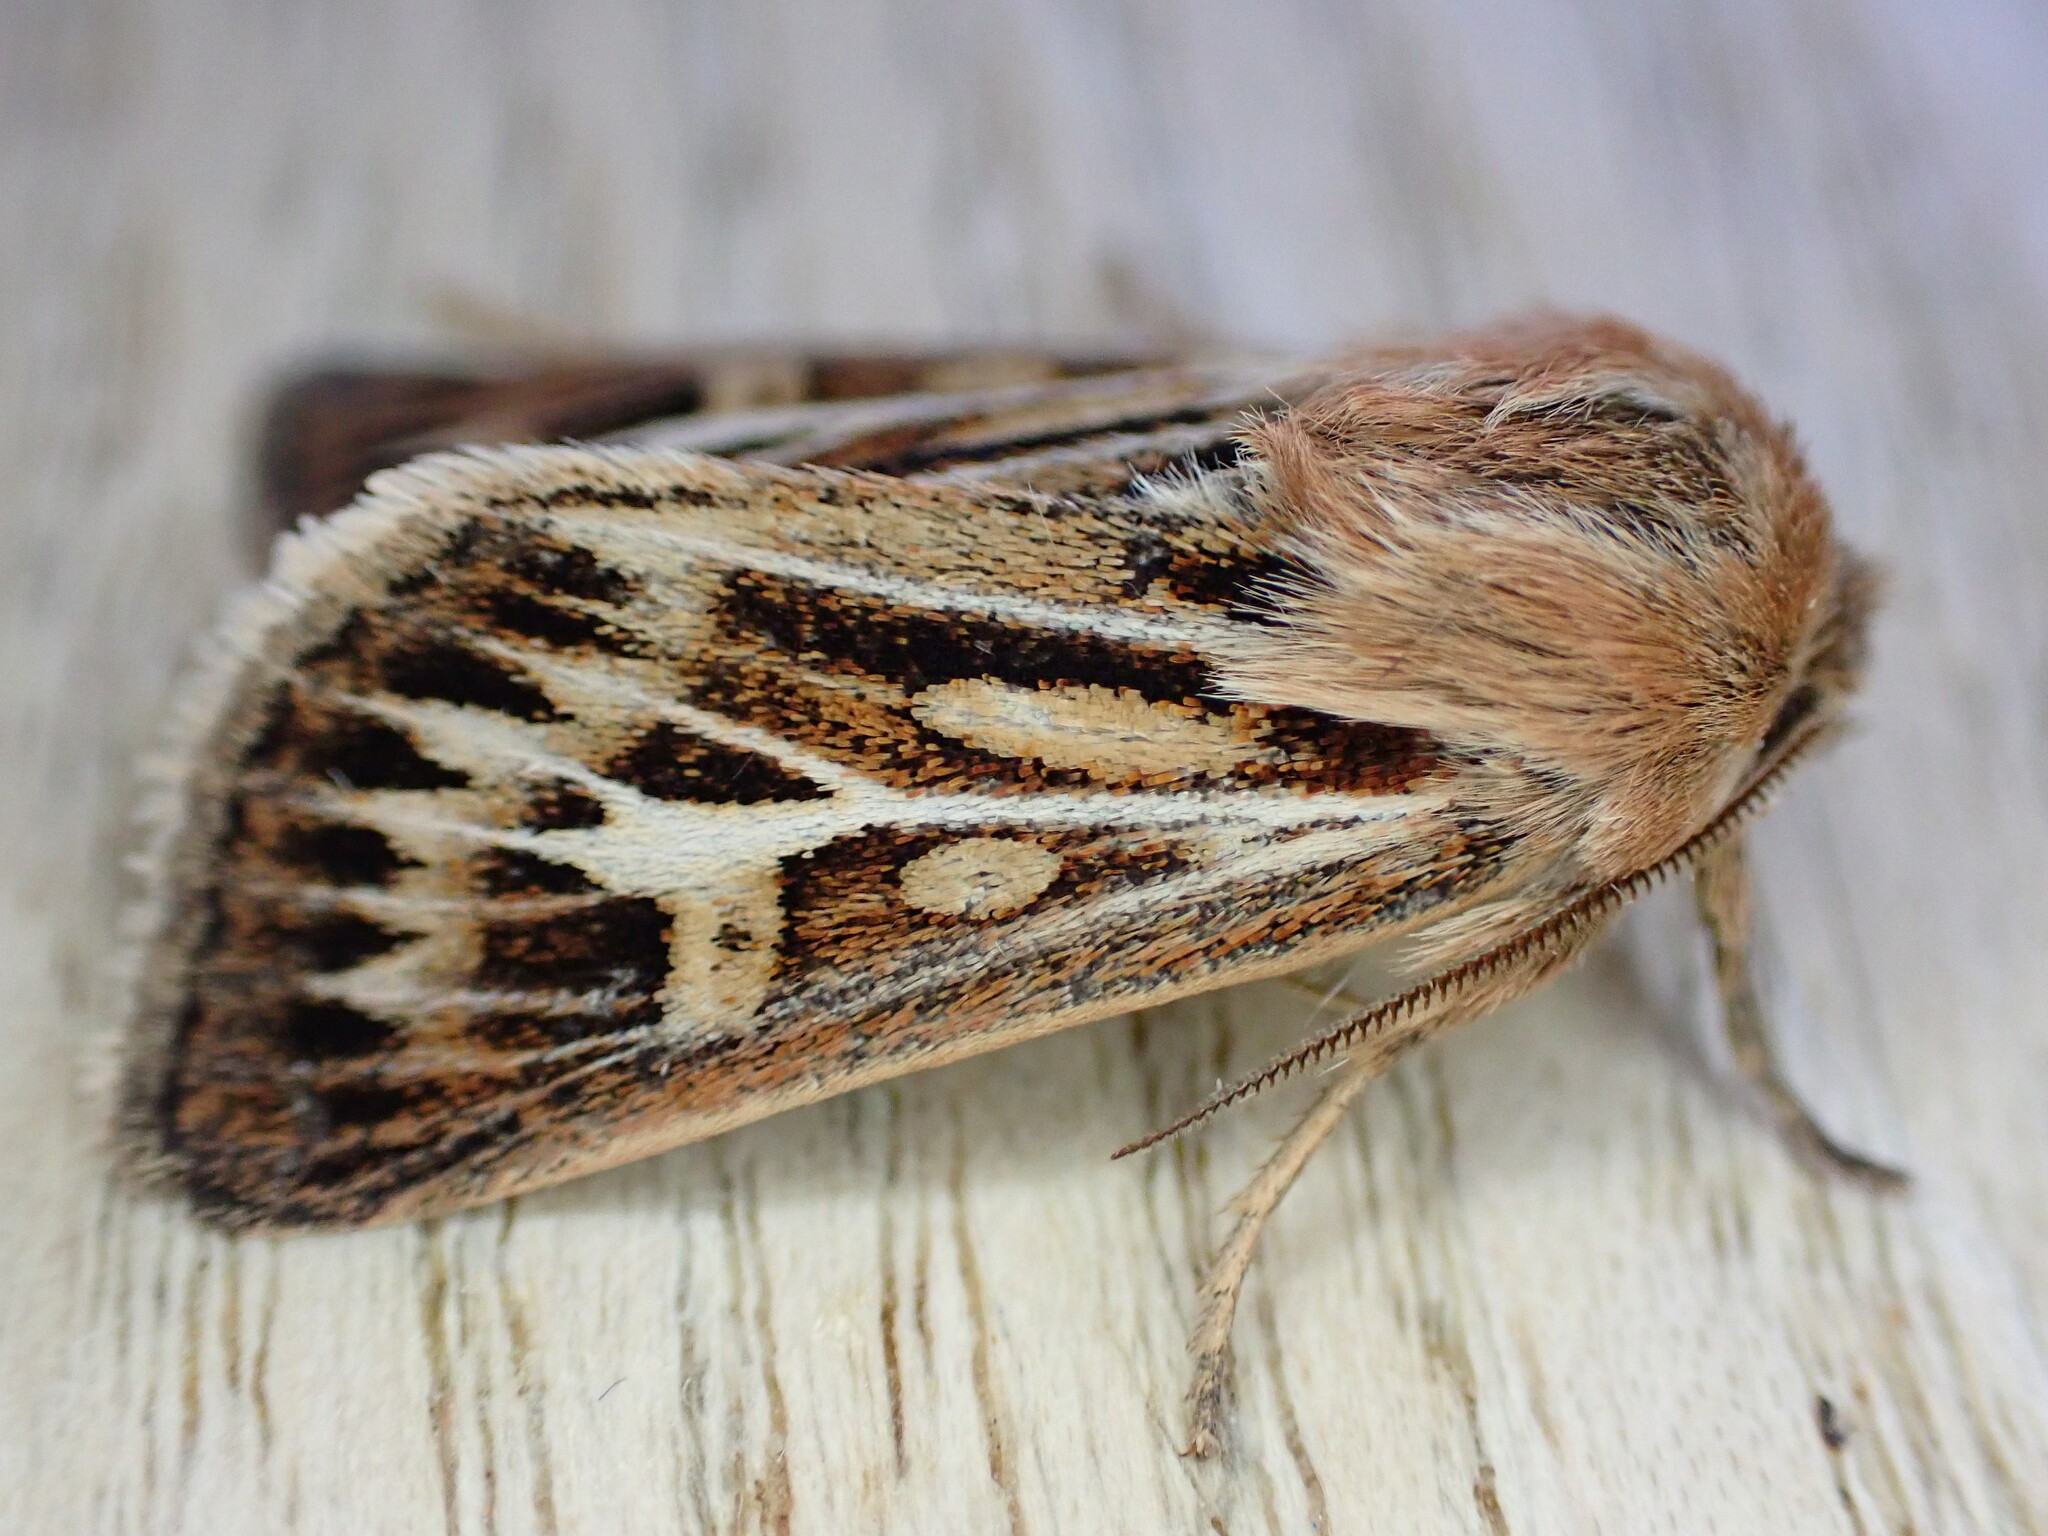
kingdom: Animalia
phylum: Arthropoda
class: Insecta
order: Lepidoptera
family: Noctuidae
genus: Cerapteryx
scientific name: Cerapteryx graminis
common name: Antler moth
